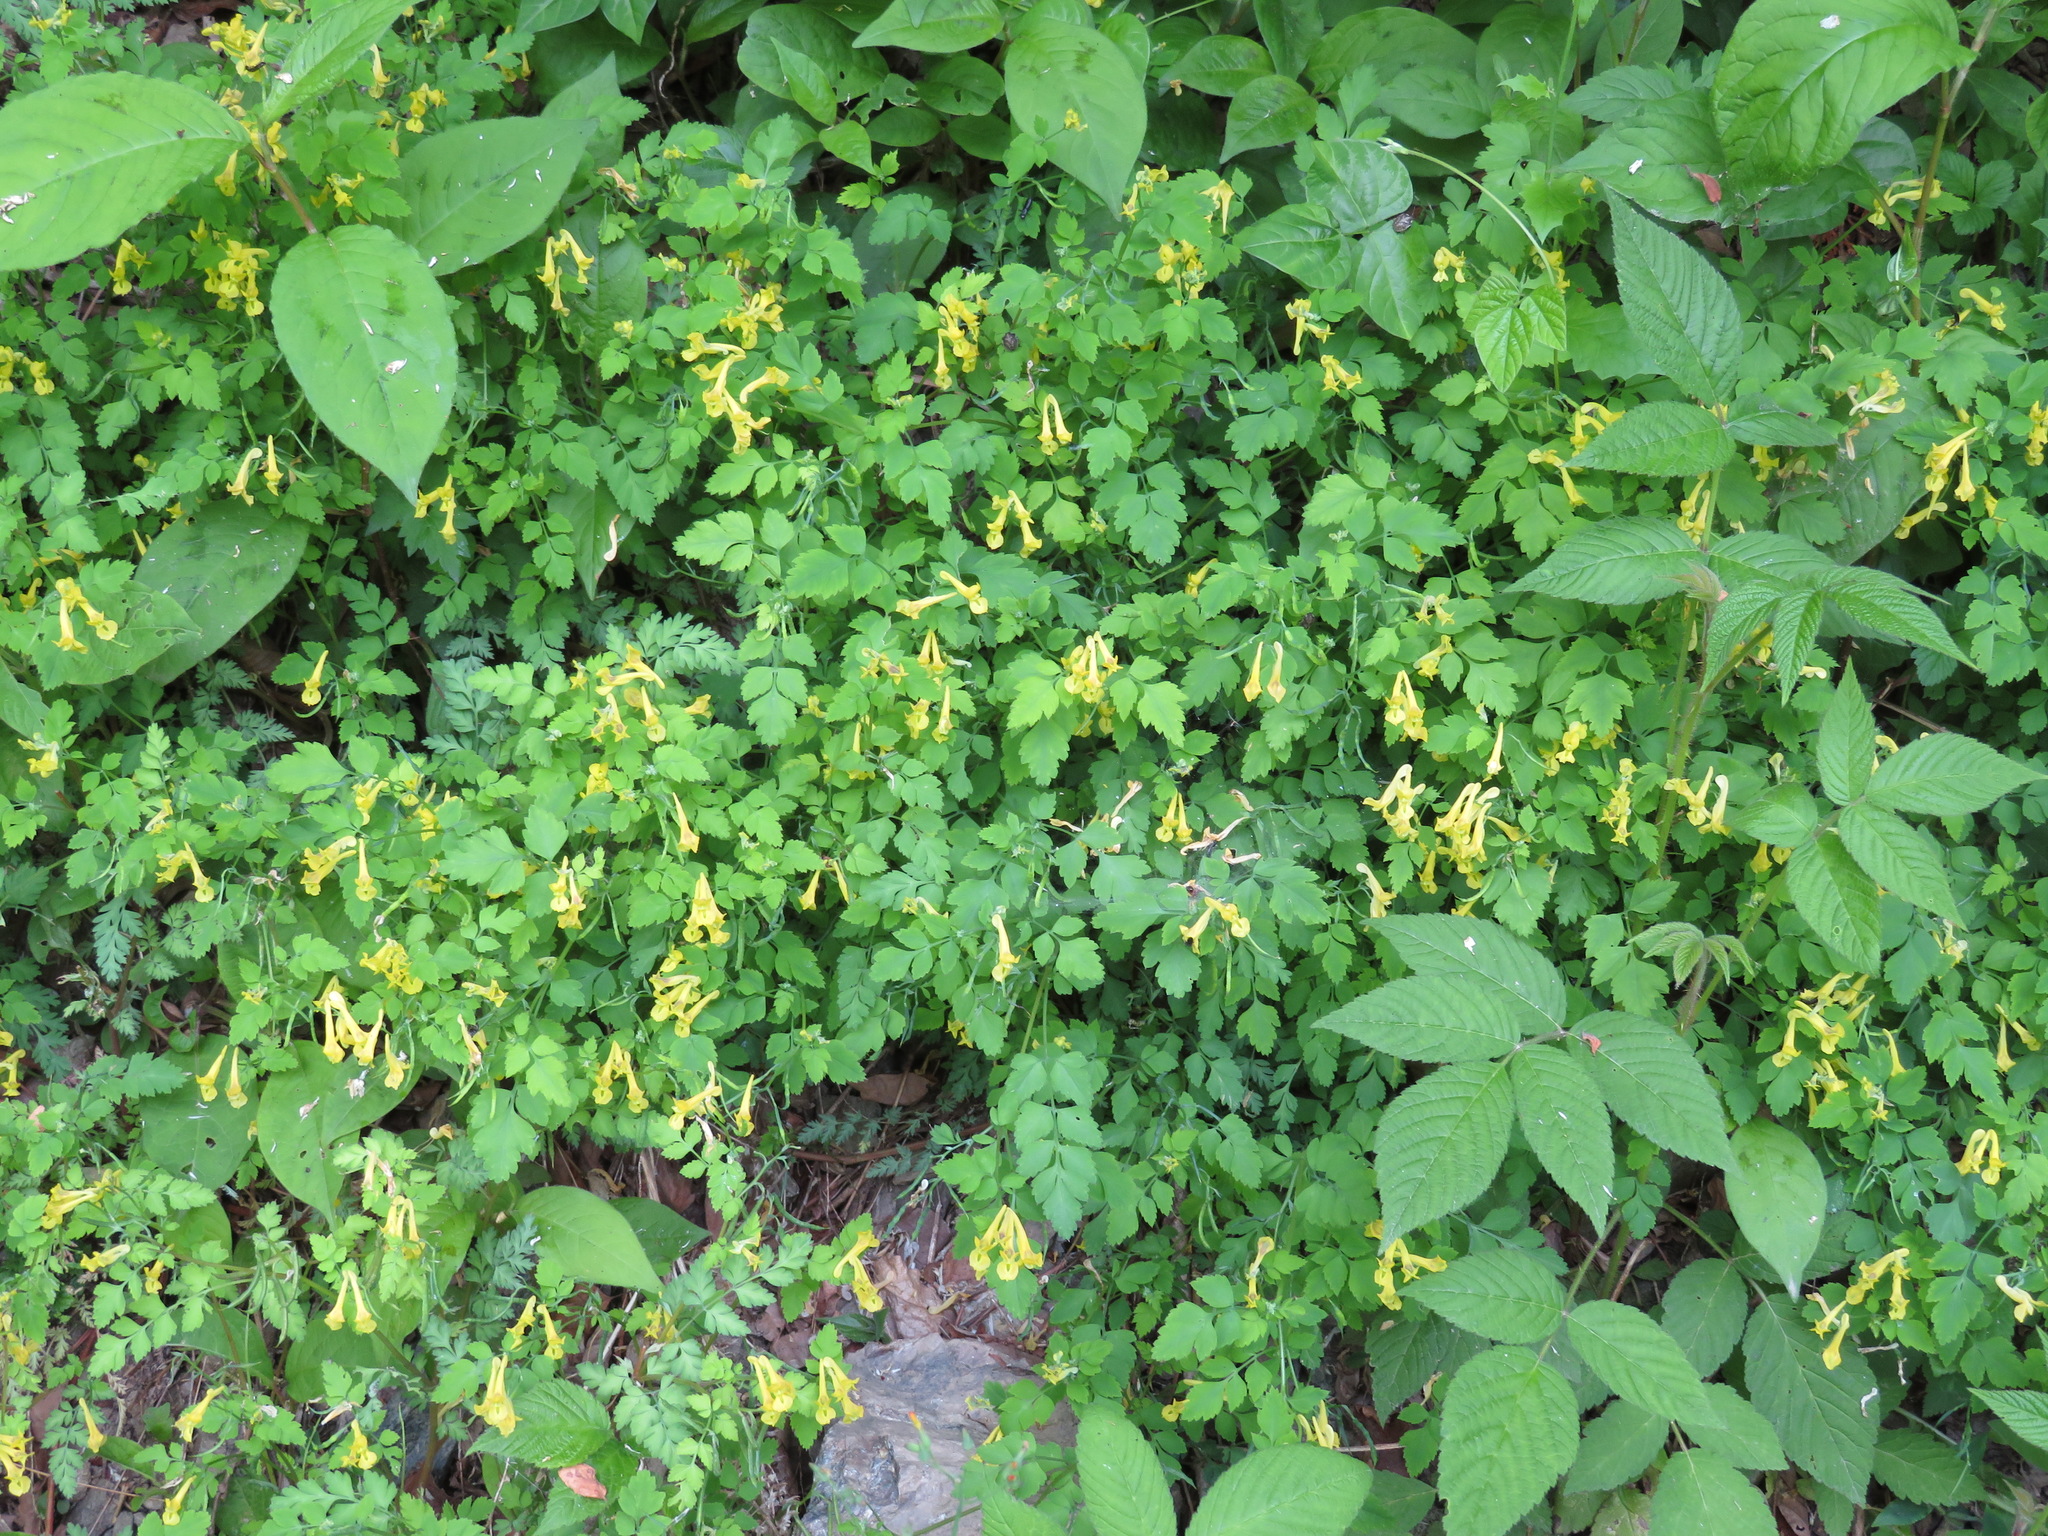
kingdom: Plantae
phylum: Tracheophyta
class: Magnoliopsida
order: Ranunculales
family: Papaveraceae
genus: Corydalis
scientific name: Corydalis pallida
